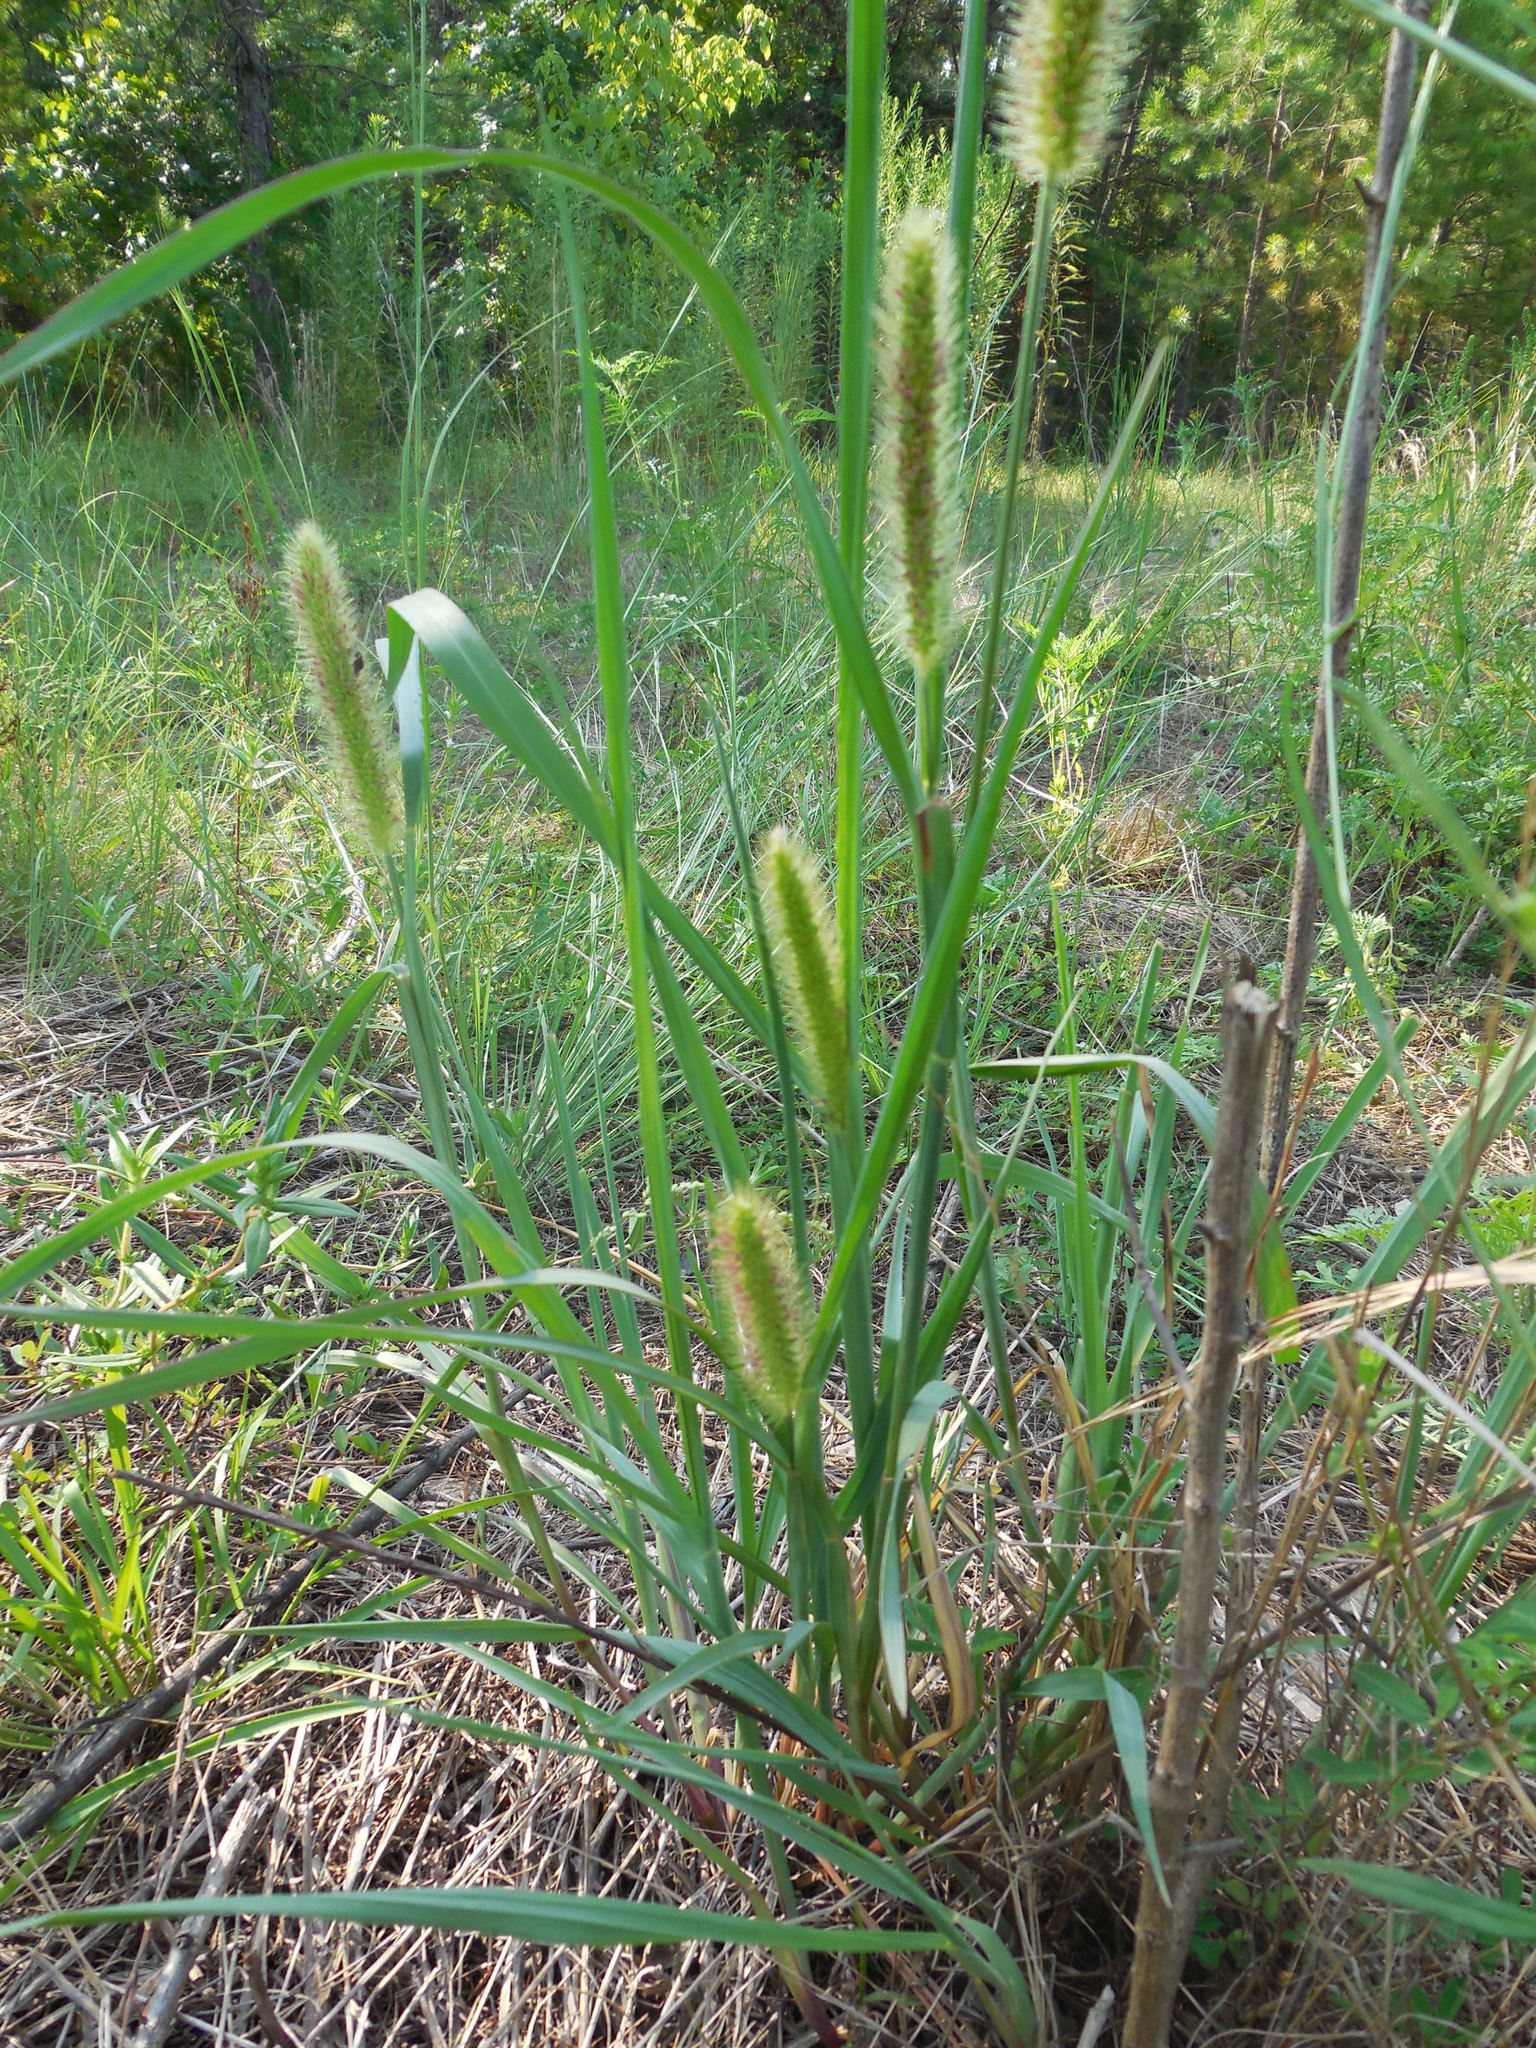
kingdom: Plantae
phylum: Tracheophyta
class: Liliopsida
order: Poales
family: Poaceae
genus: Setaria
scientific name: Setaria parviflora
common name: Knotroot bristle-grass
